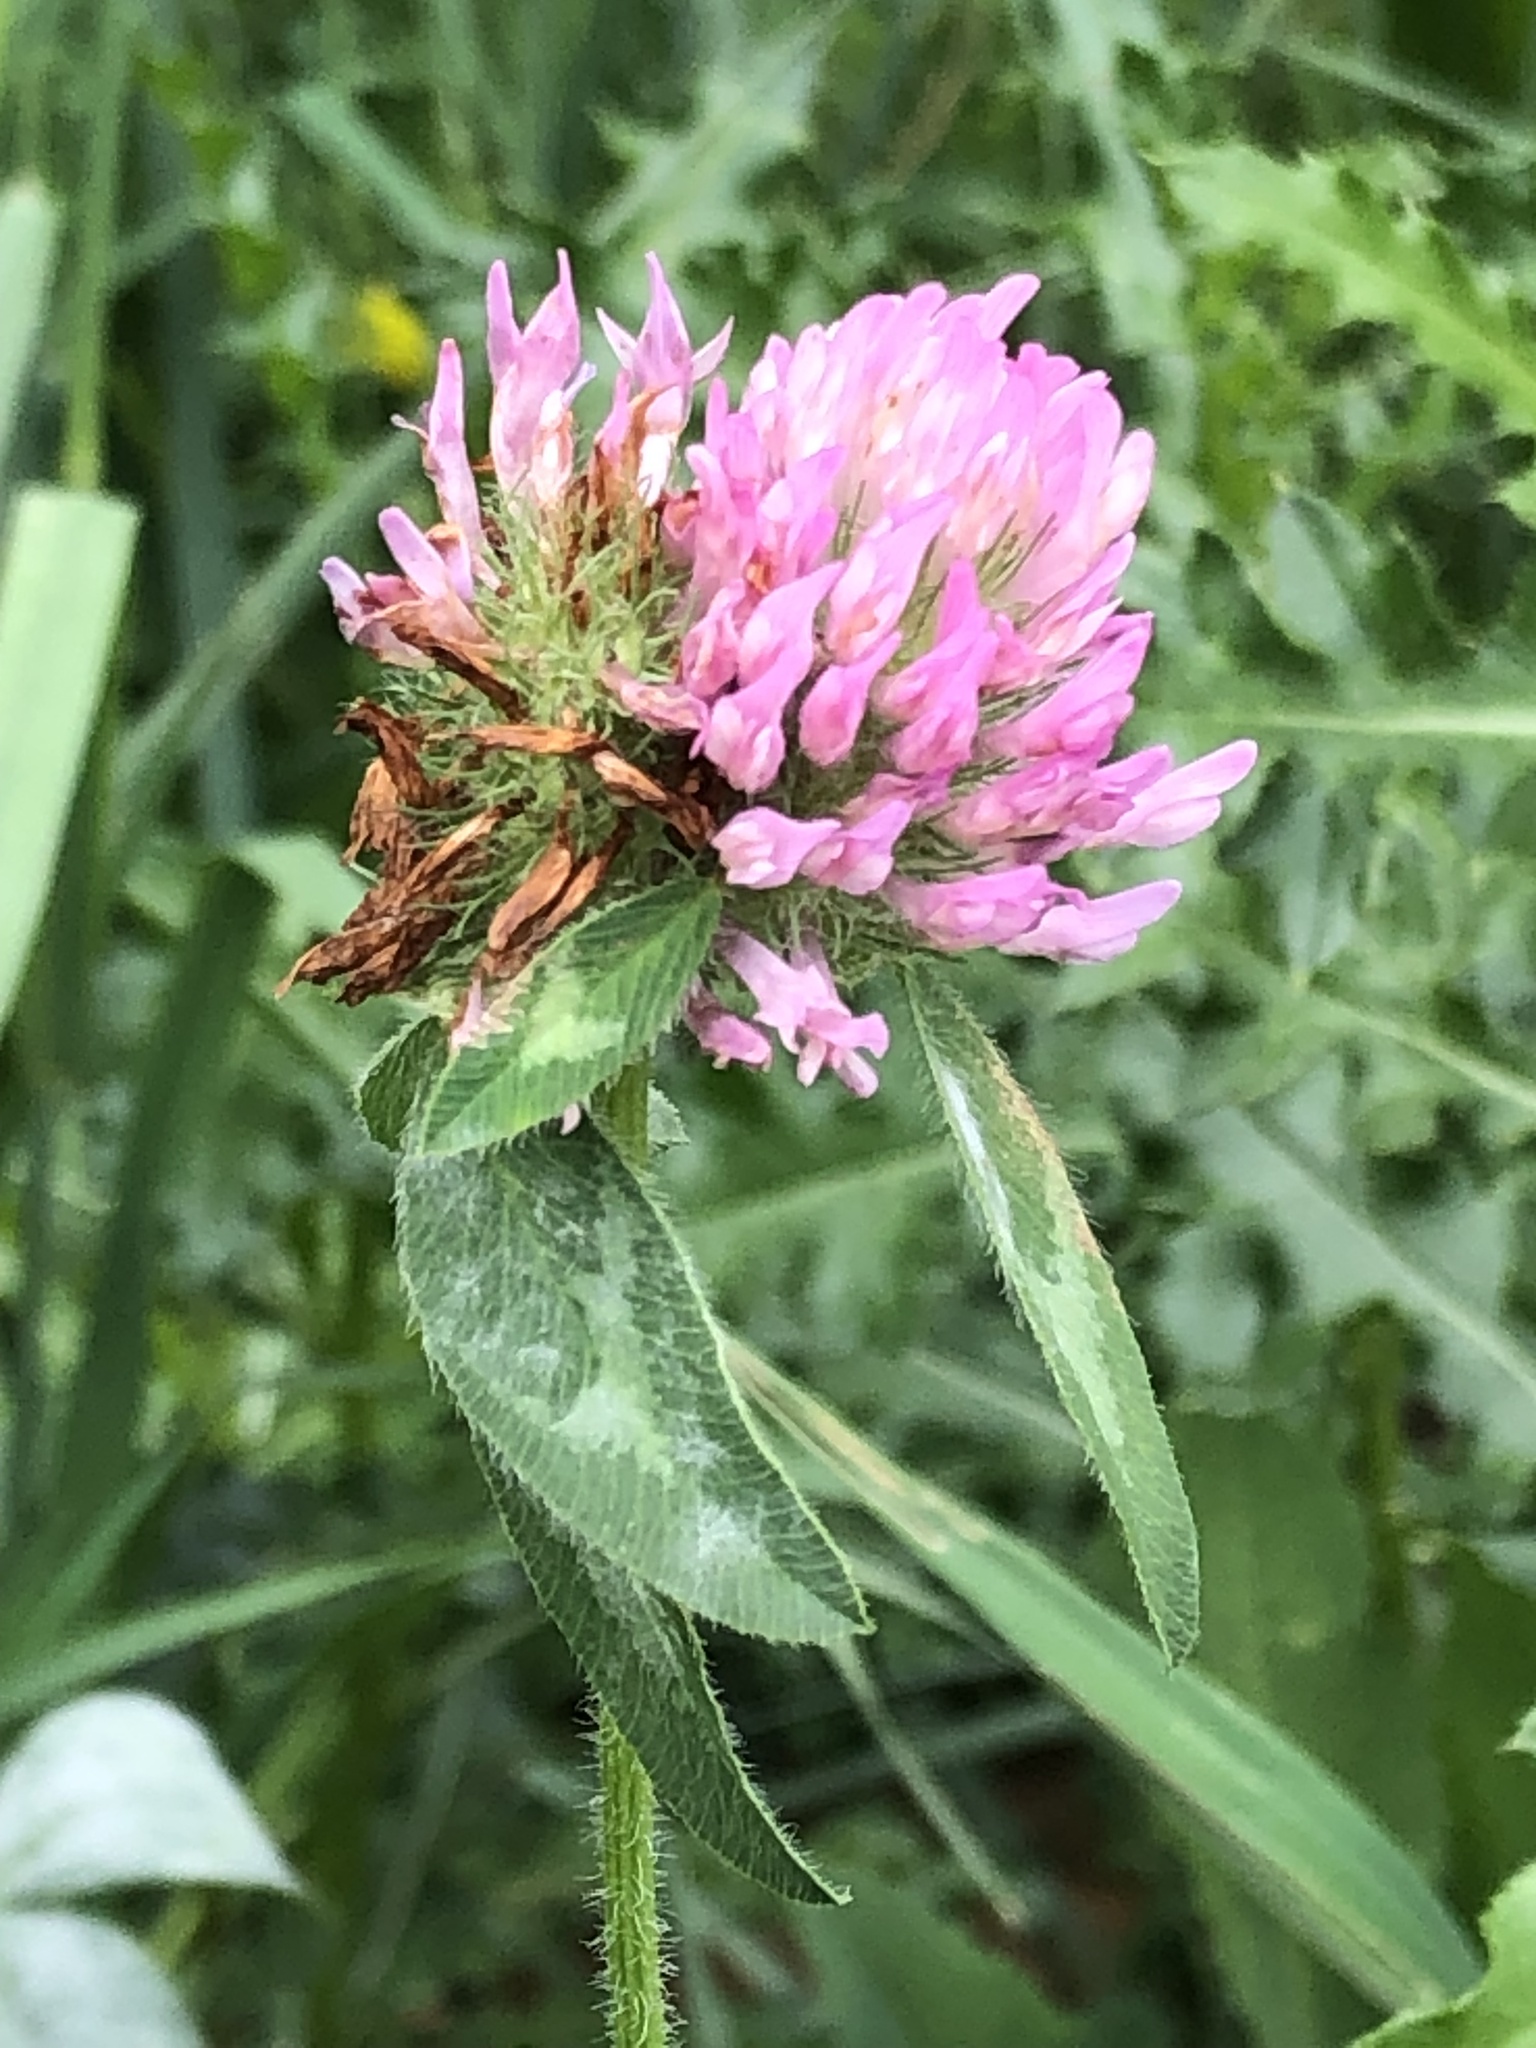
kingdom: Plantae
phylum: Tracheophyta
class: Magnoliopsida
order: Fabales
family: Fabaceae
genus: Trifolium
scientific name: Trifolium pratense
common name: Red clover
